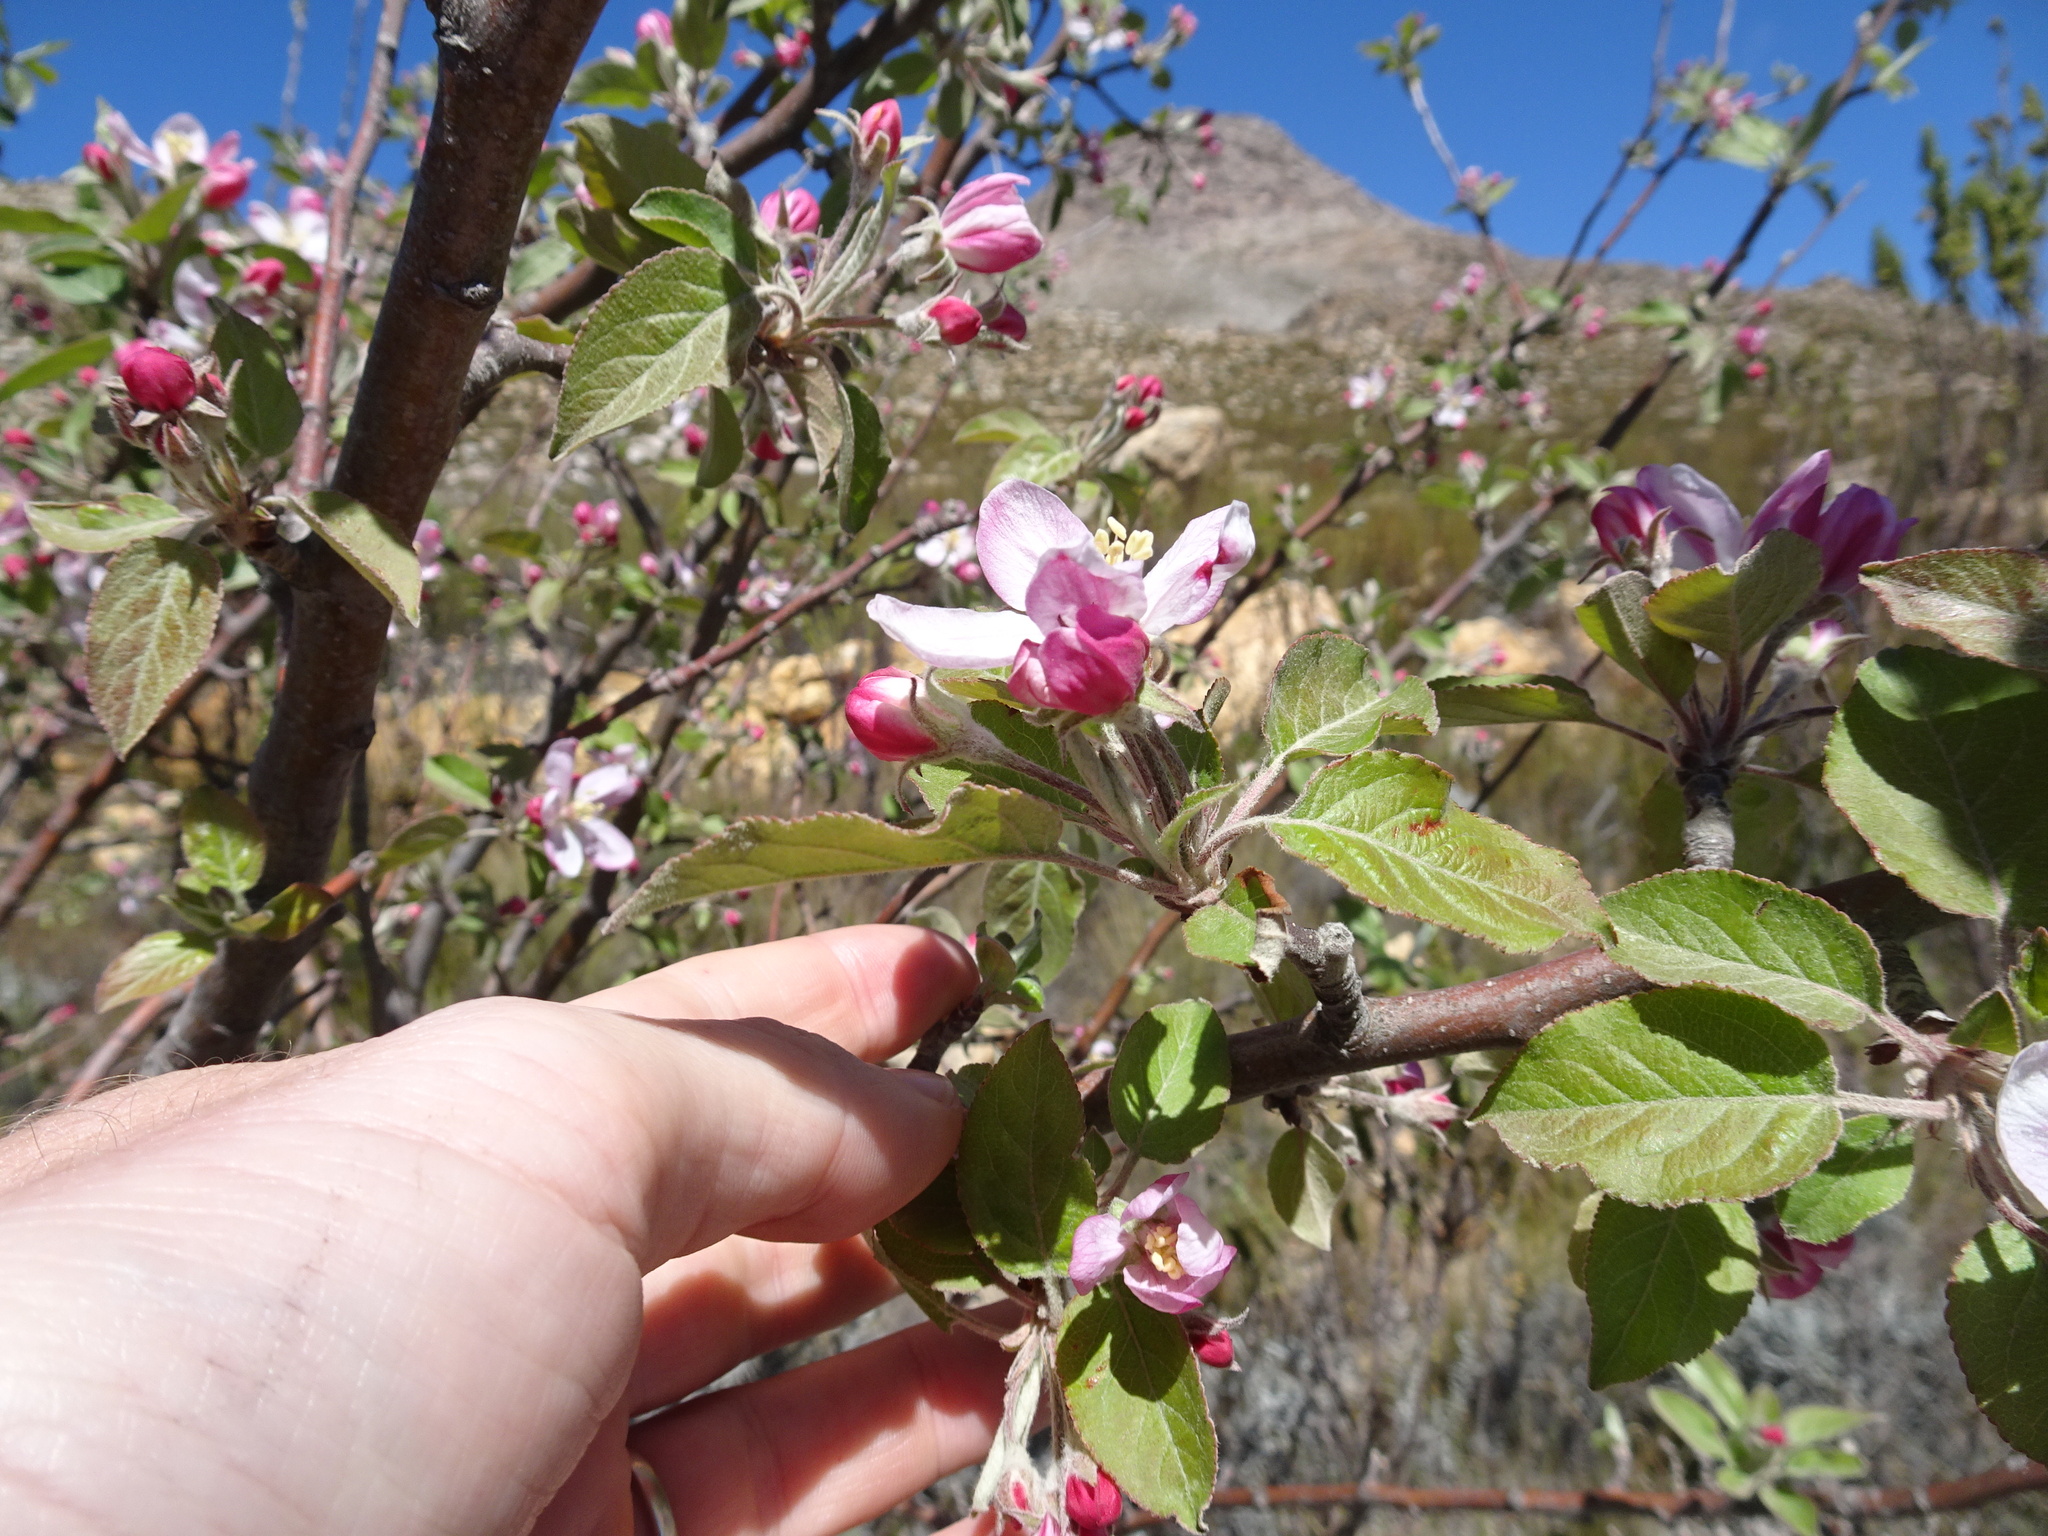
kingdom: Plantae
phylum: Tracheophyta
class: Magnoliopsida
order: Rosales
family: Rosaceae
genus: Malus
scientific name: Malus domestica
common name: Apple
